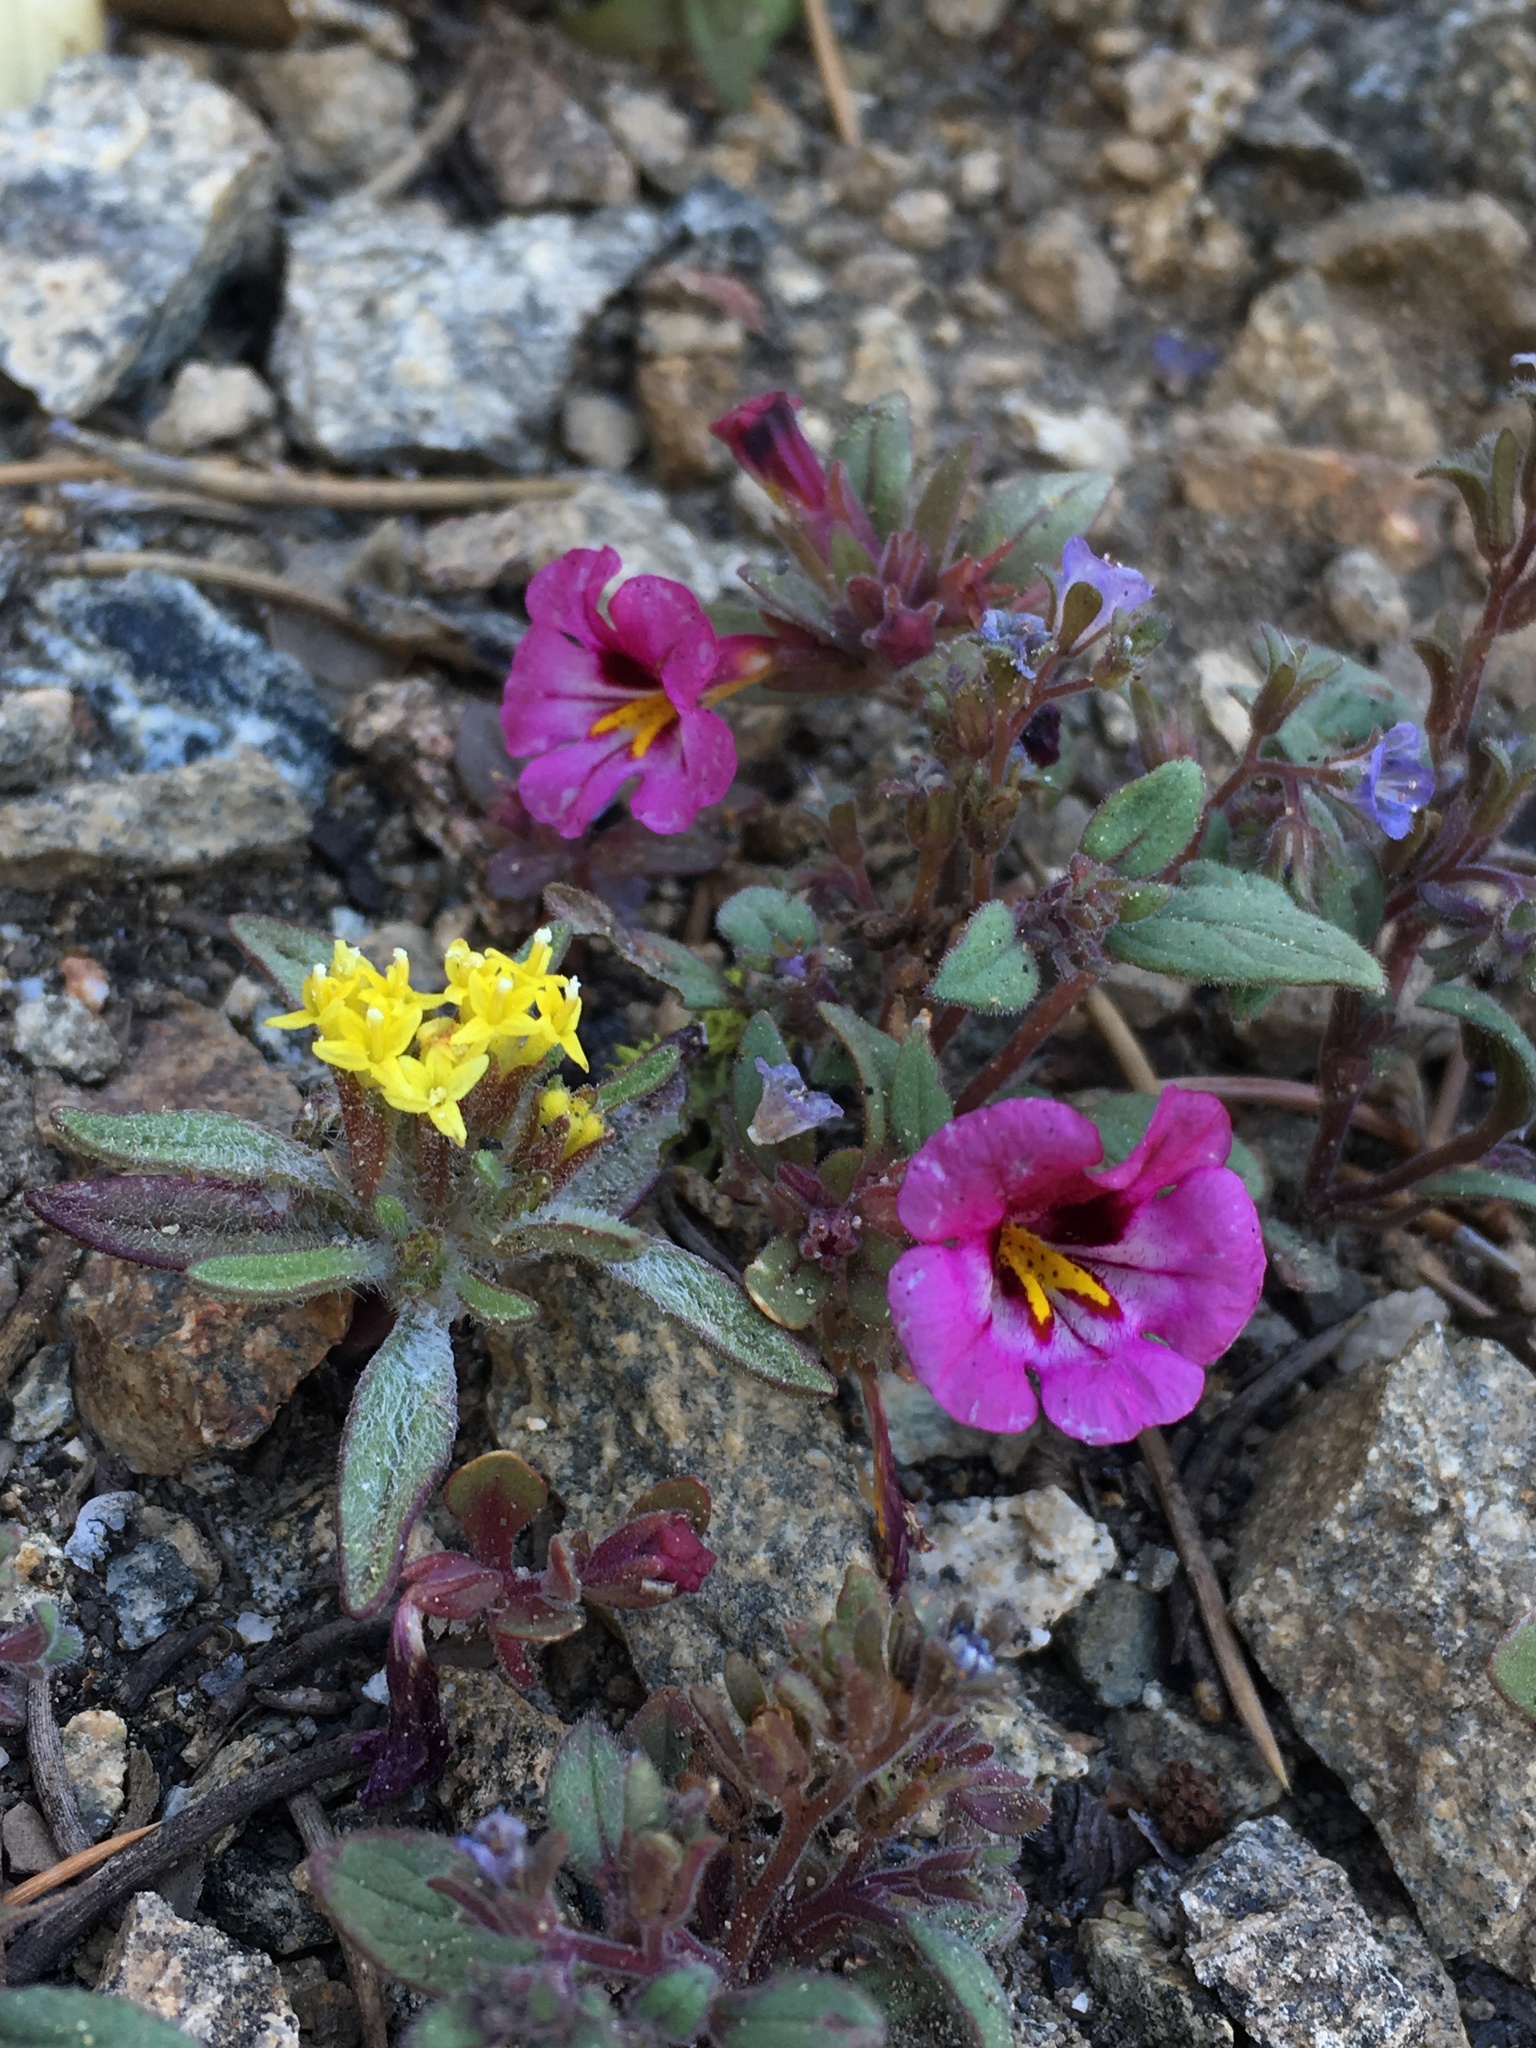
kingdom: Plantae
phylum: Tracheophyta
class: Magnoliopsida
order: Asterales
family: Asteraceae
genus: Orochaenactis
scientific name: Orochaenactis thysanocarpha
